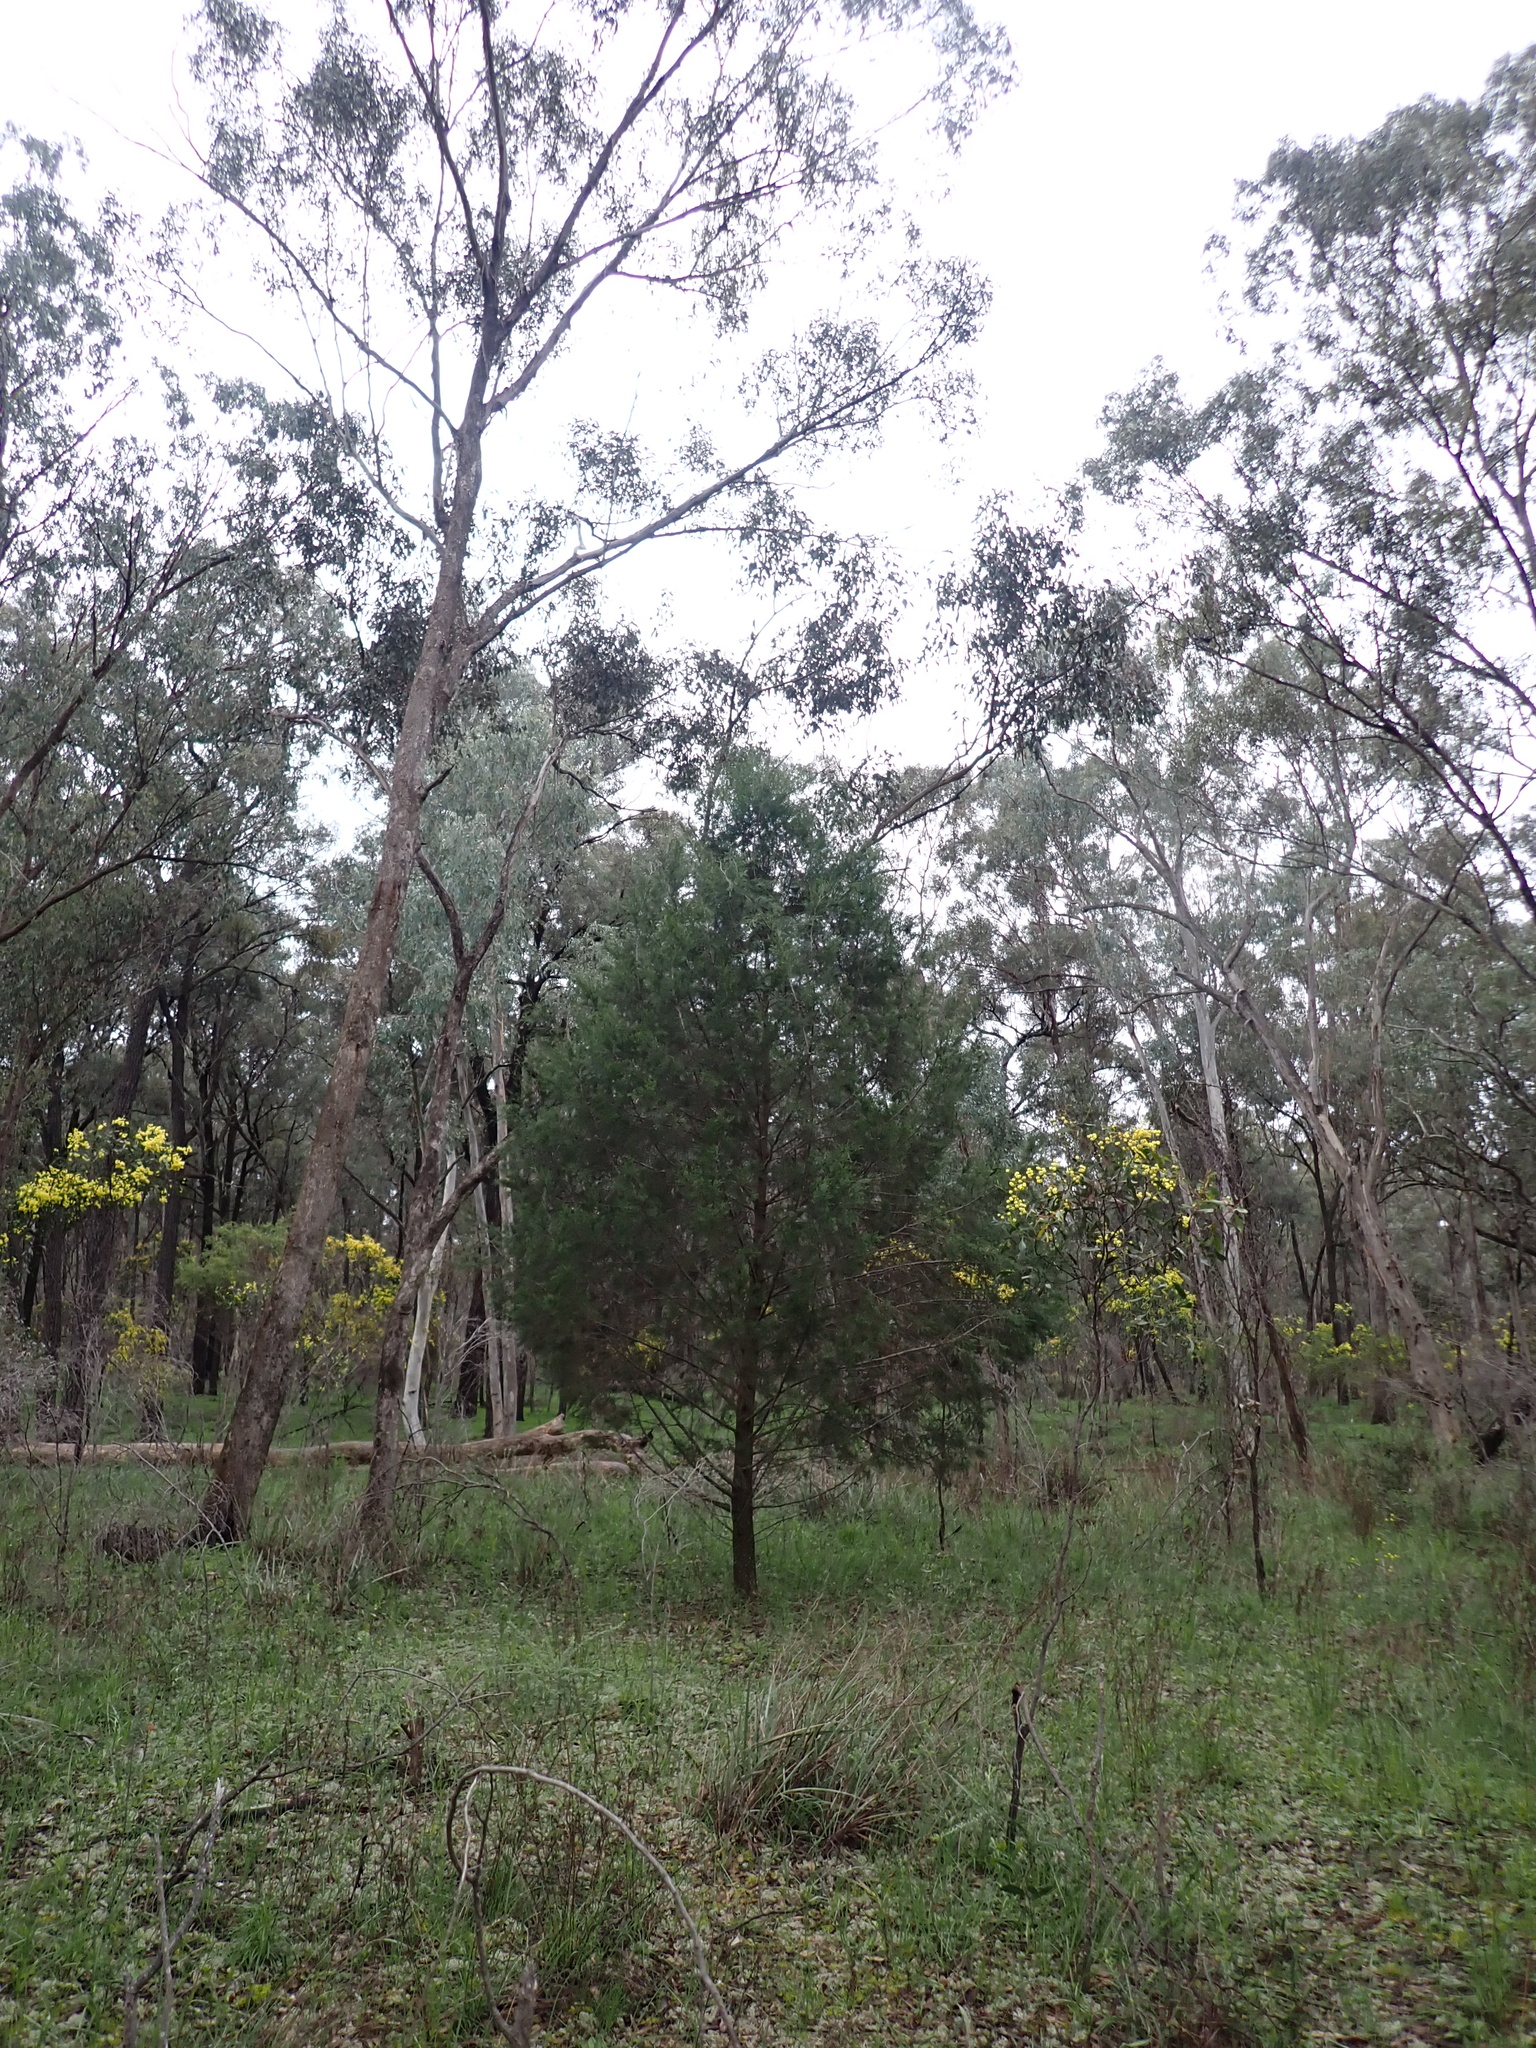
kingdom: Plantae
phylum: Tracheophyta
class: Pinopsida
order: Pinales
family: Cupressaceae
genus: Callitris
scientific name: Callitris columellaris
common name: White cypress-pine
